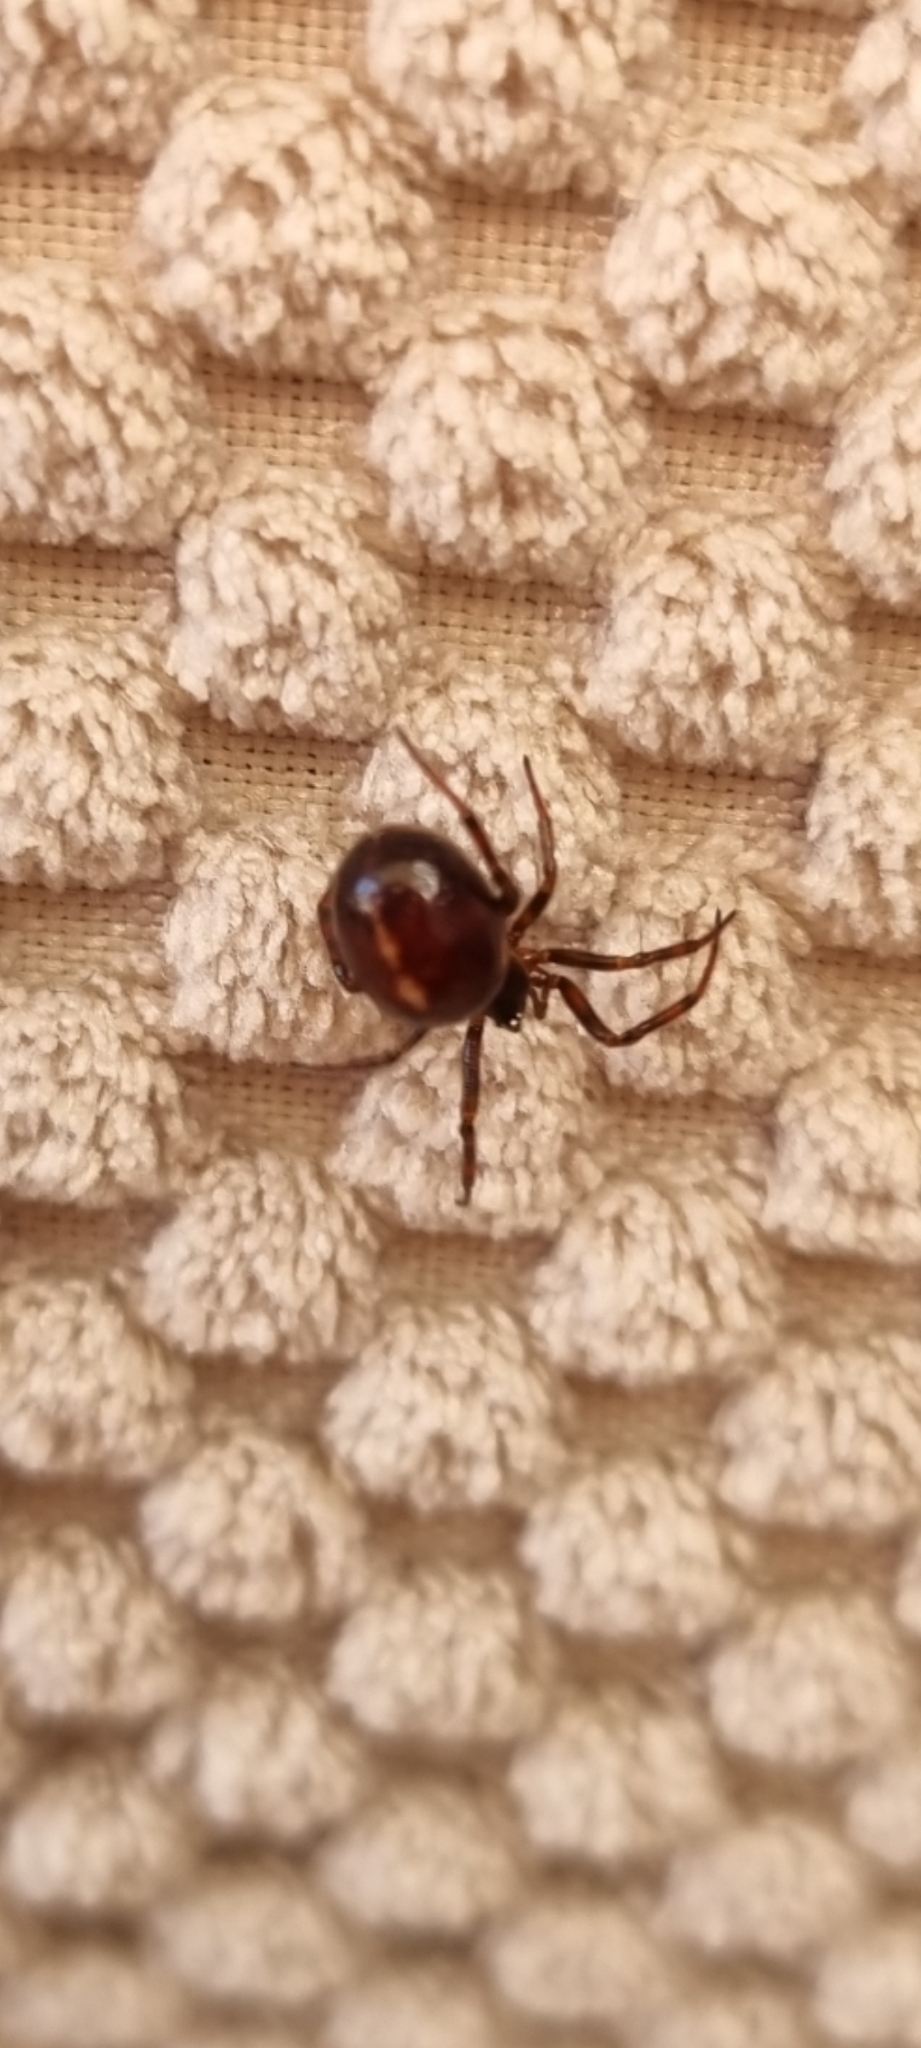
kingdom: Animalia
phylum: Arthropoda
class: Arachnida
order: Araneae
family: Theridiidae
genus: Steatoda
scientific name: Steatoda bipunctata
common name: False widow
